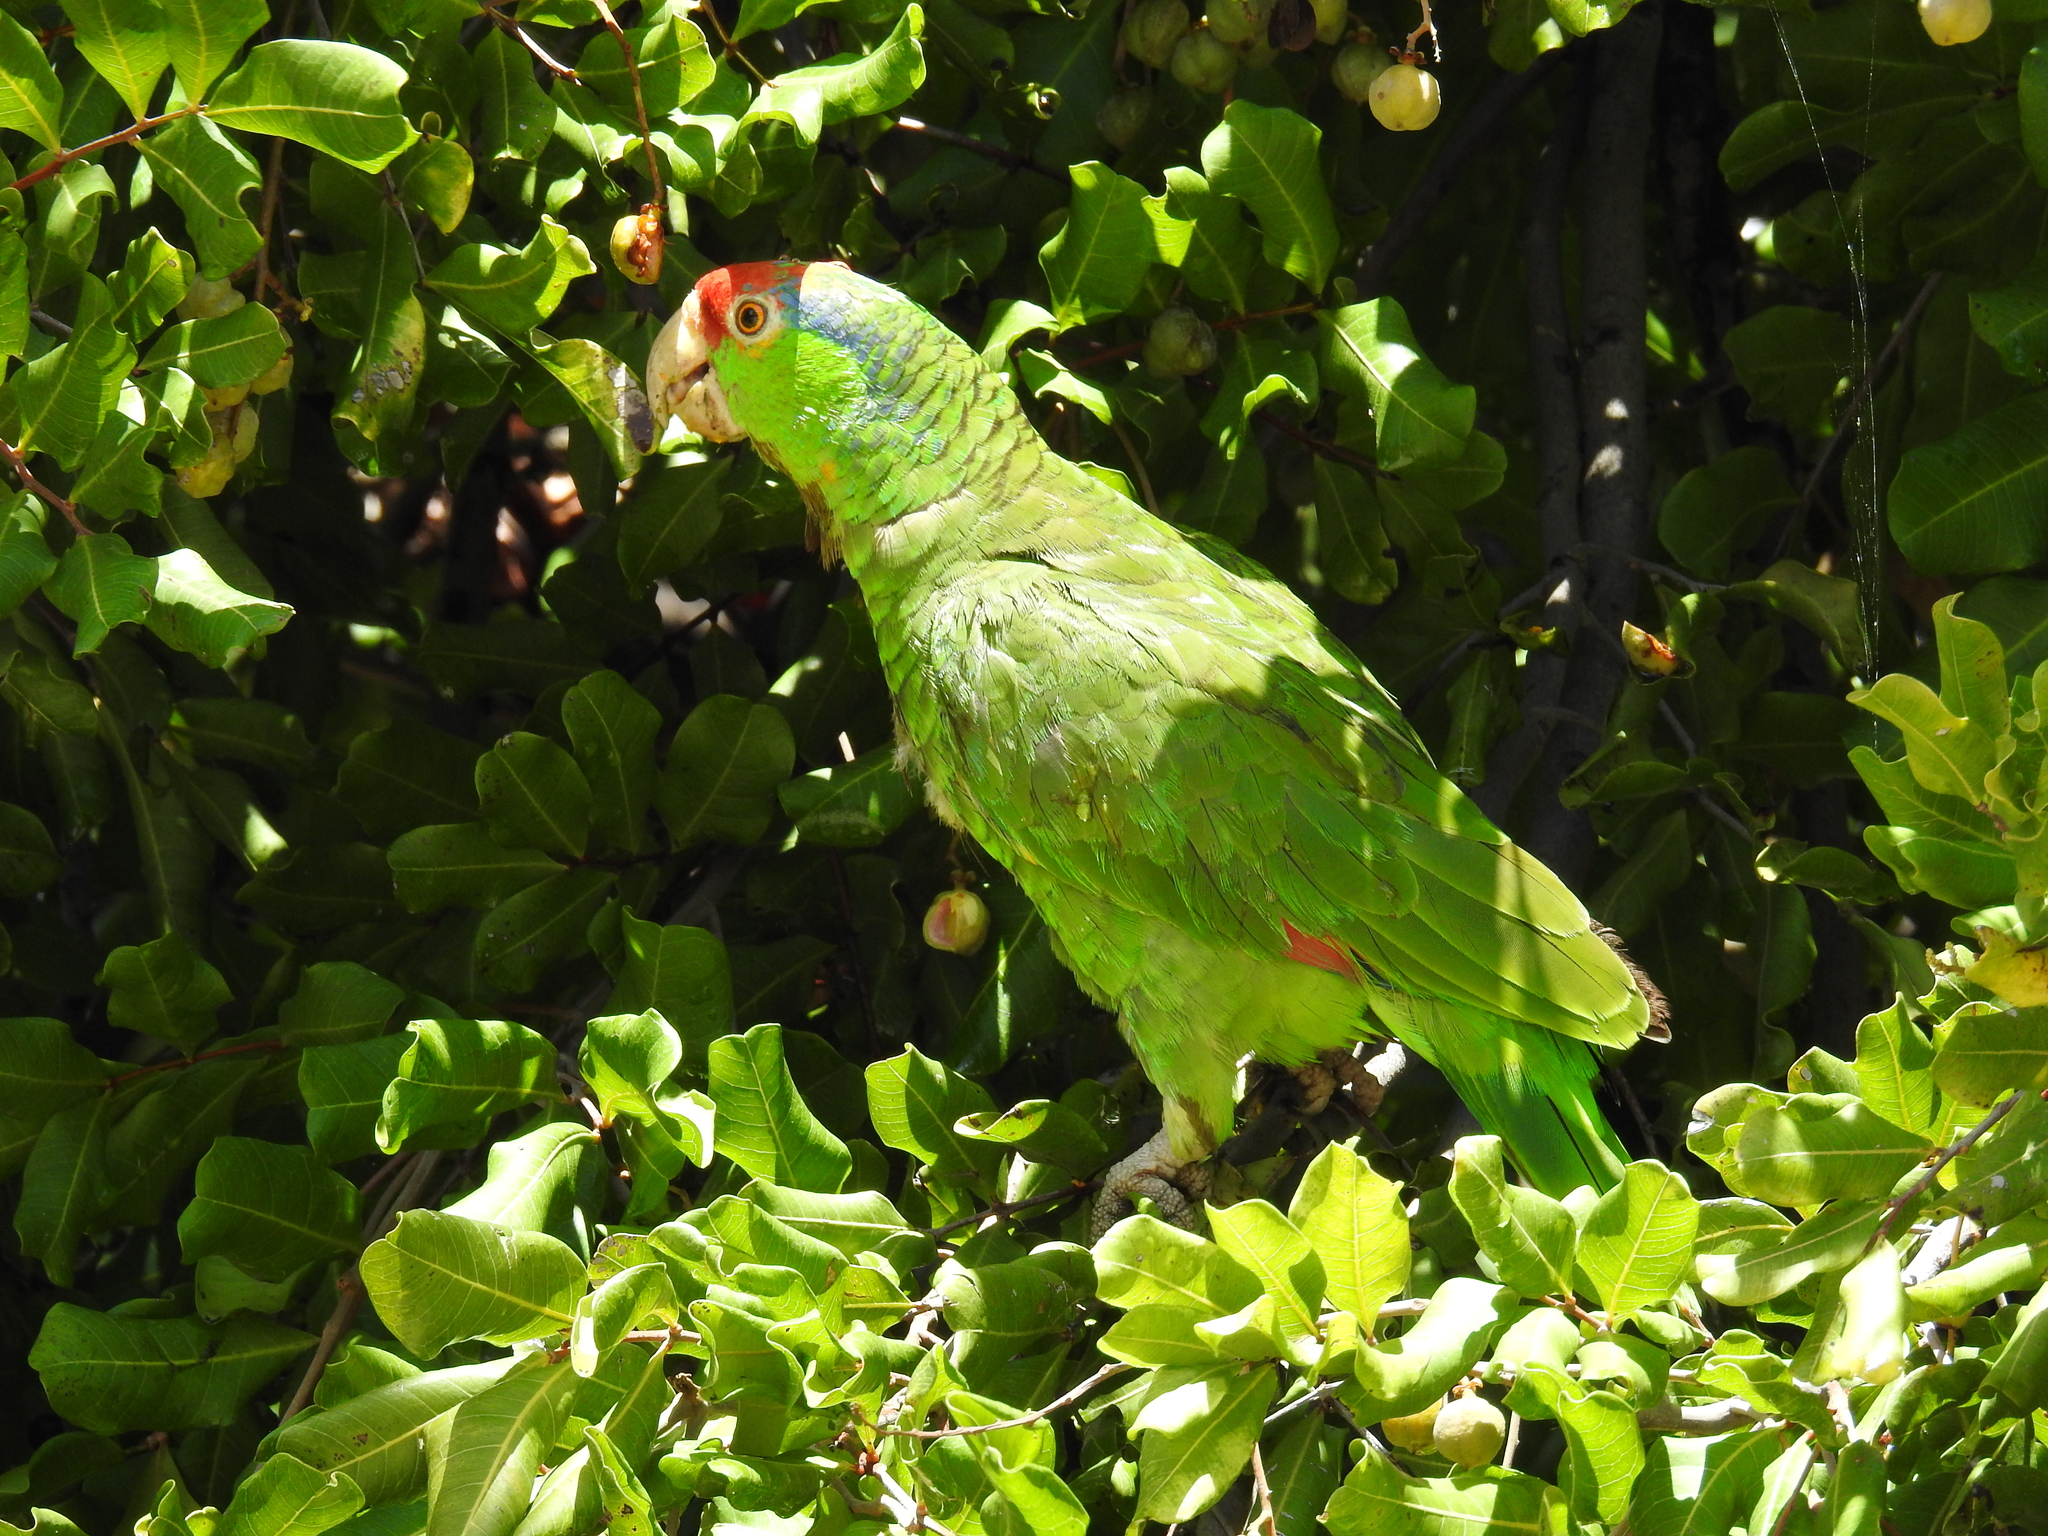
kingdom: Animalia
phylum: Chordata
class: Aves
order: Psittaciformes
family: Psittacidae
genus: Amazona
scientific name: Amazona viridigenalis
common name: Red-crowned amazon
